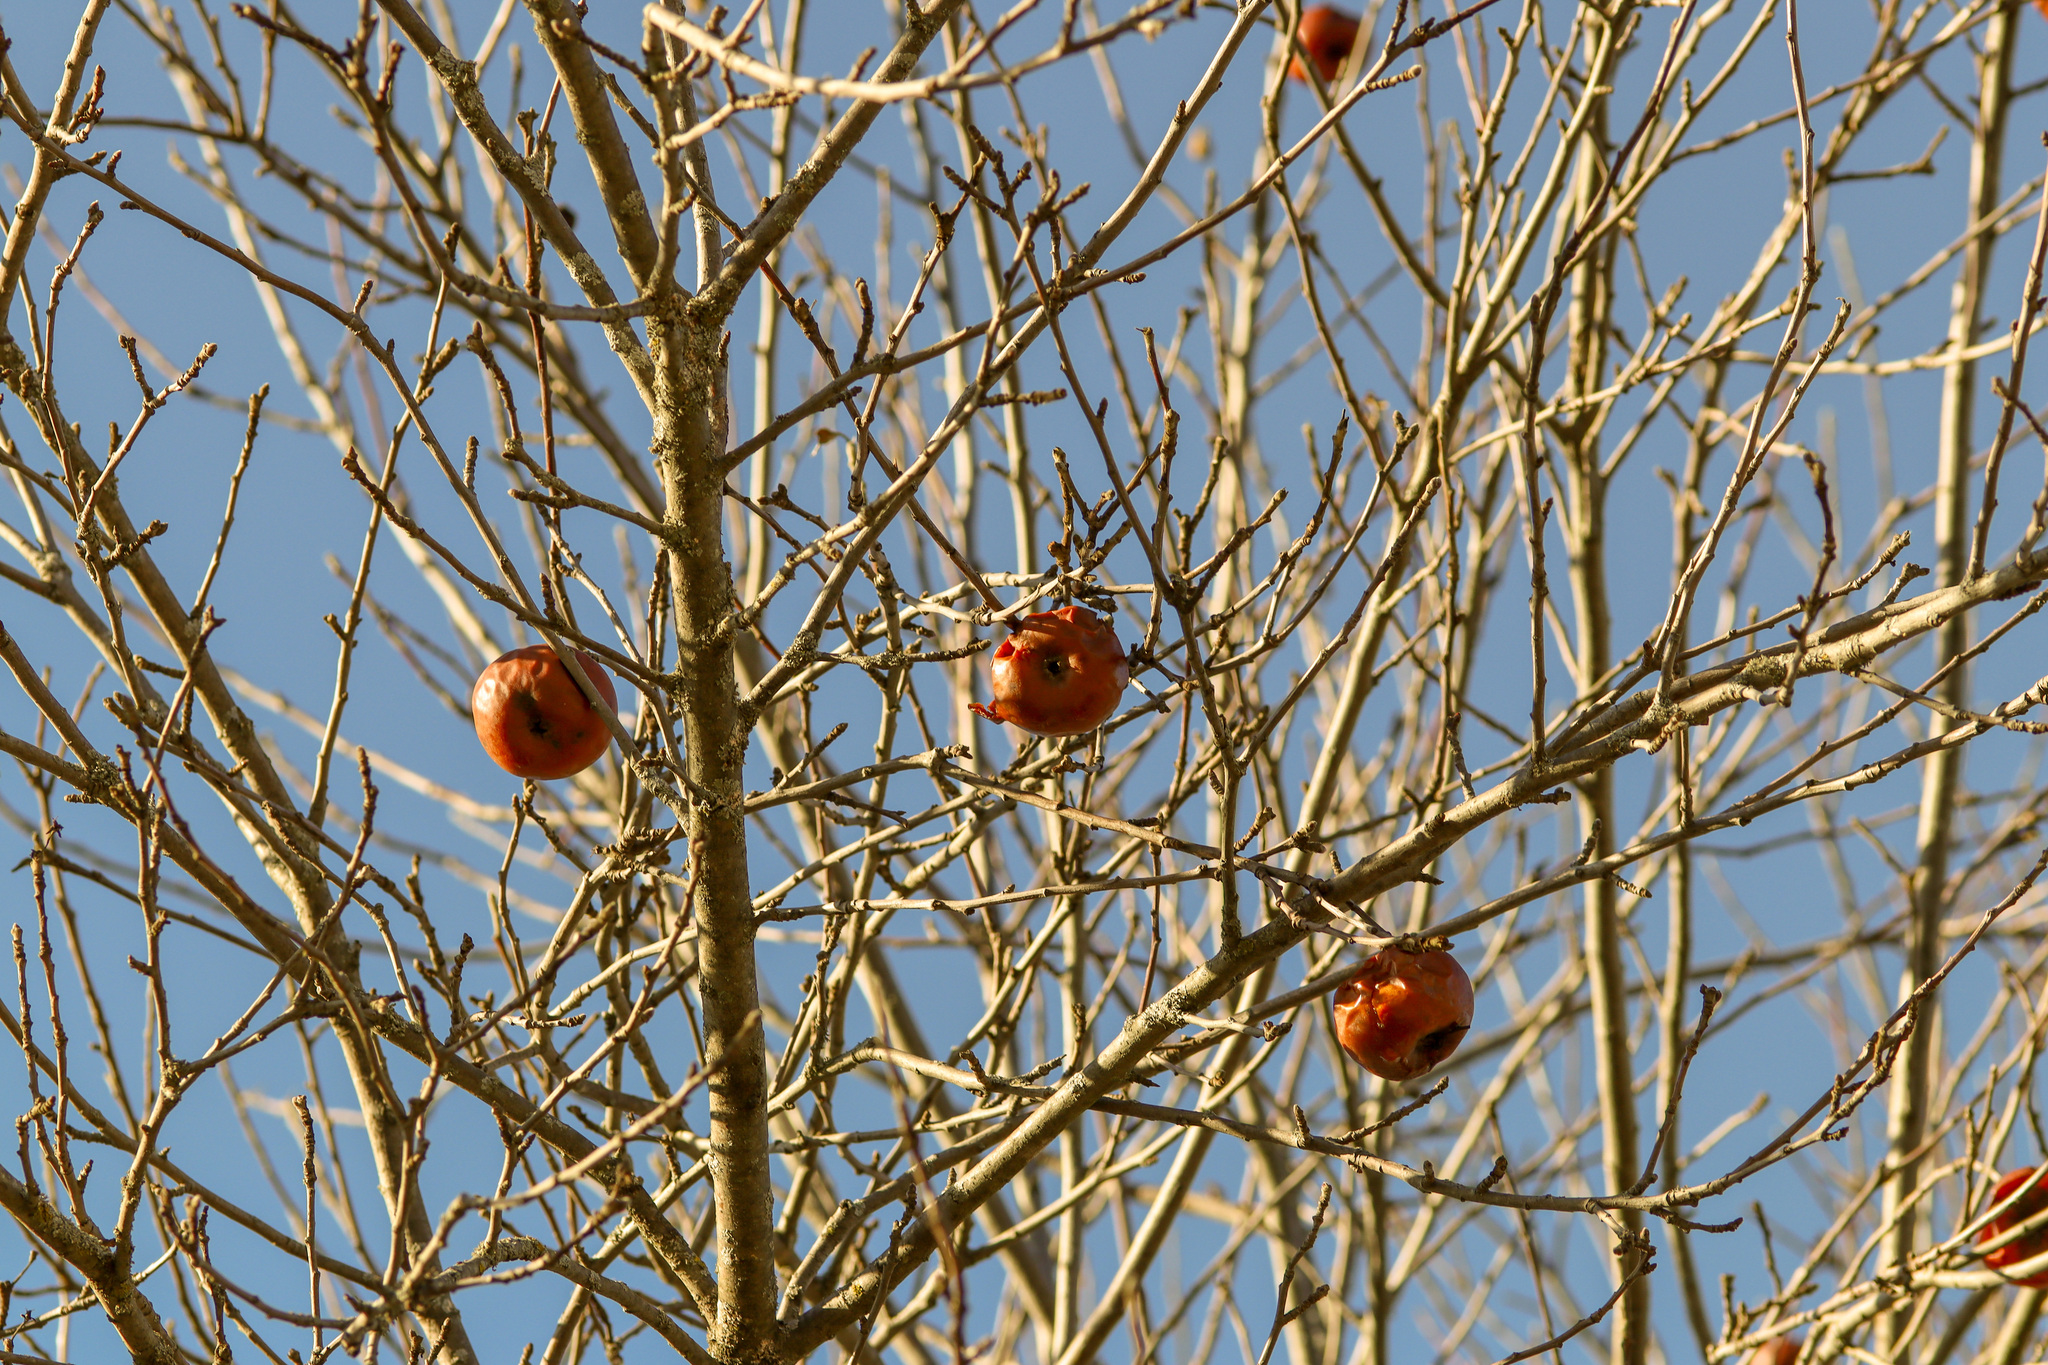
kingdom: Plantae
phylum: Tracheophyta
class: Magnoliopsida
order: Rosales
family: Rosaceae
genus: Malus
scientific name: Malus domestica
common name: Apple
